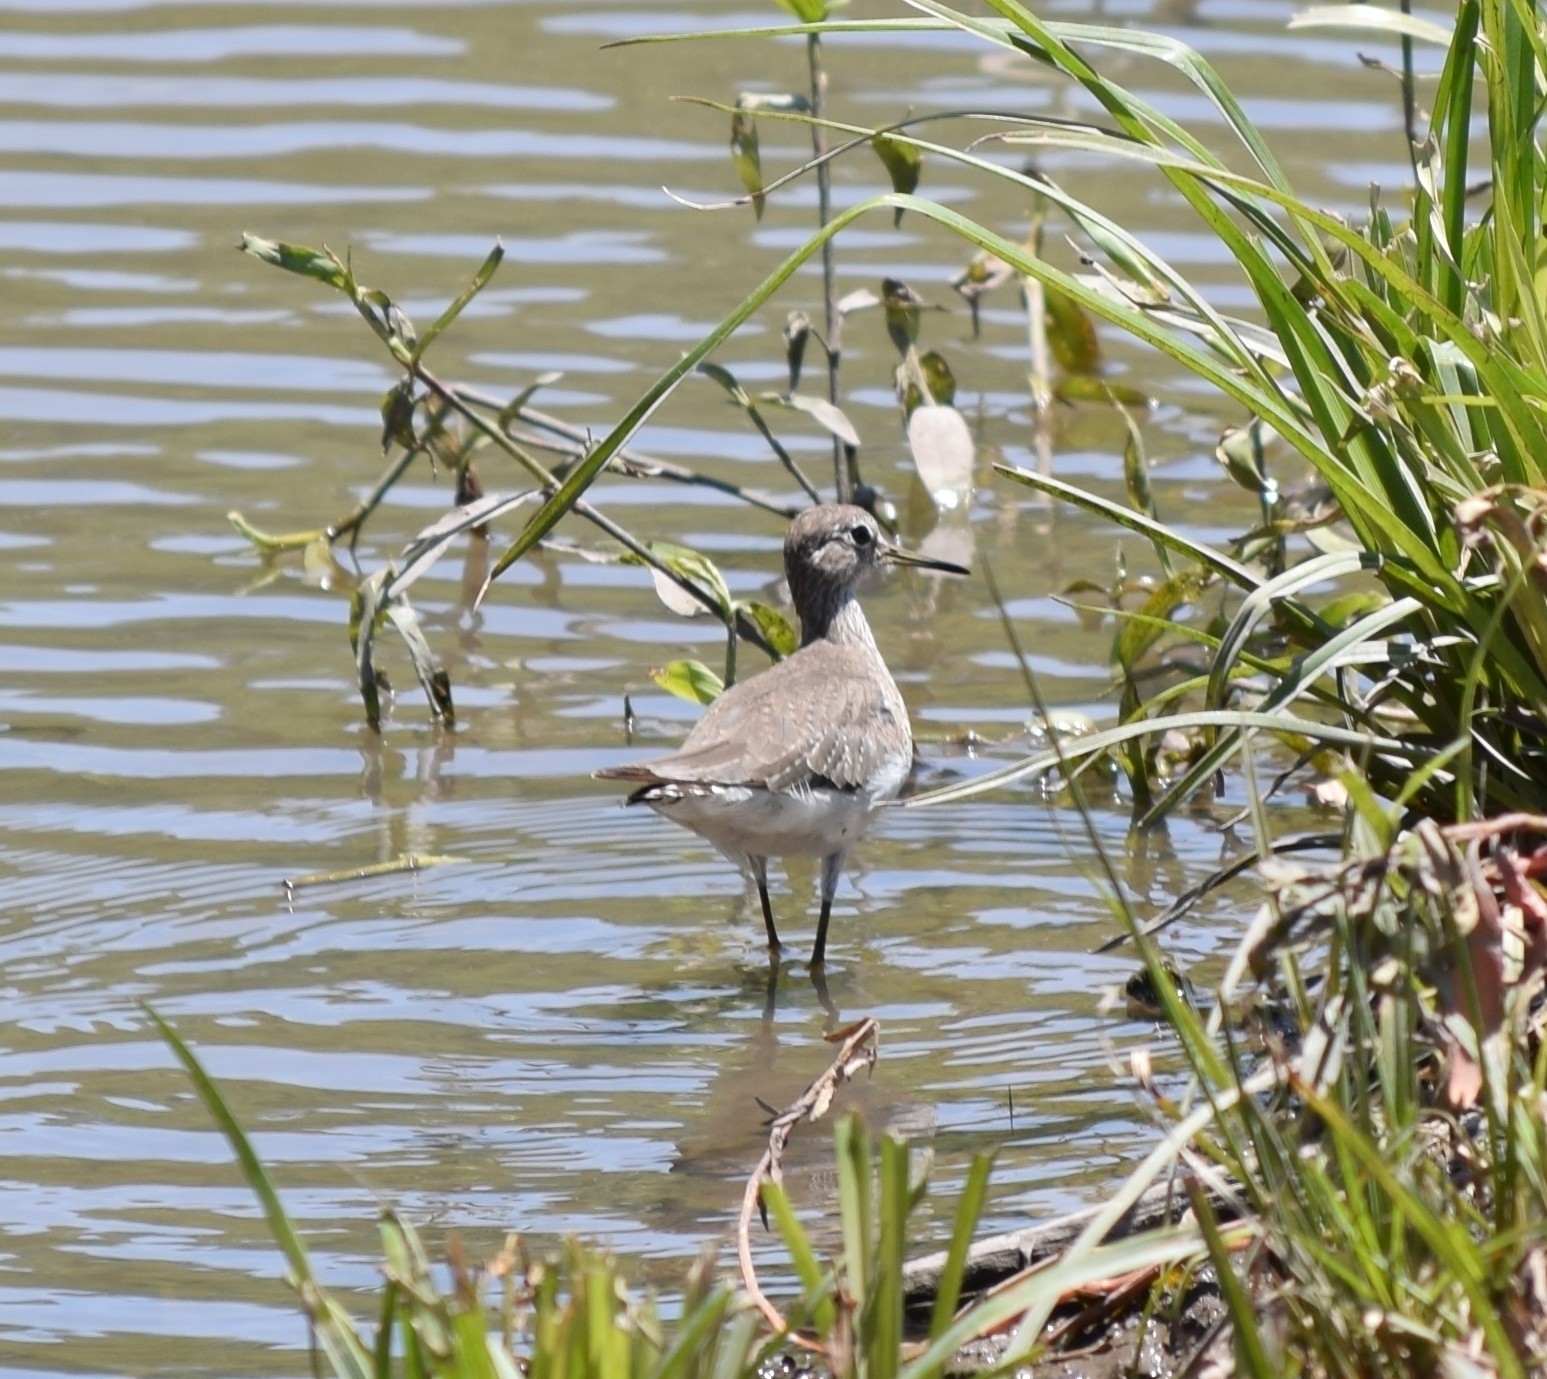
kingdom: Animalia
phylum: Chordata
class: Aves
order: Charadriiformes
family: Scolopacidae
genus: Tringa
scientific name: Tringa solitaria
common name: Solitary sandpiper
